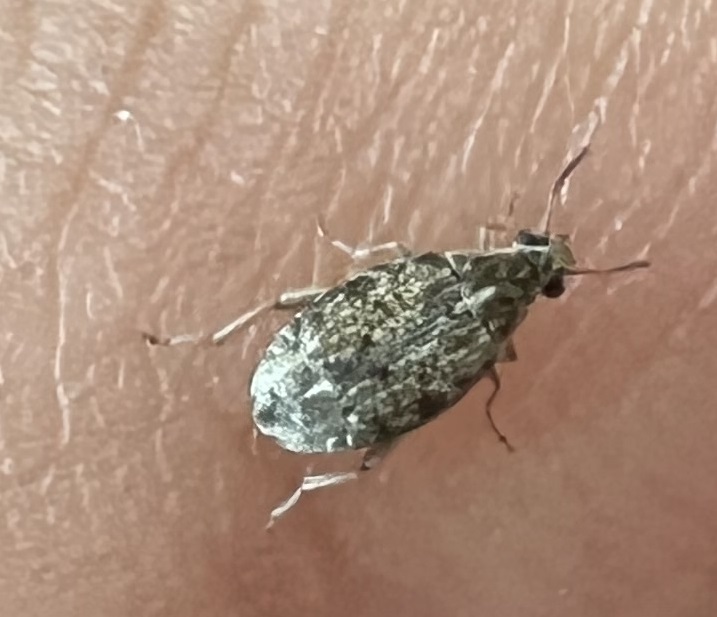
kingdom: Animalia
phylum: Arthropoda
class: Insecta
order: Coleoptera
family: Chrysomelidae
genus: Algarobius
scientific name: Algarobius prosopis
